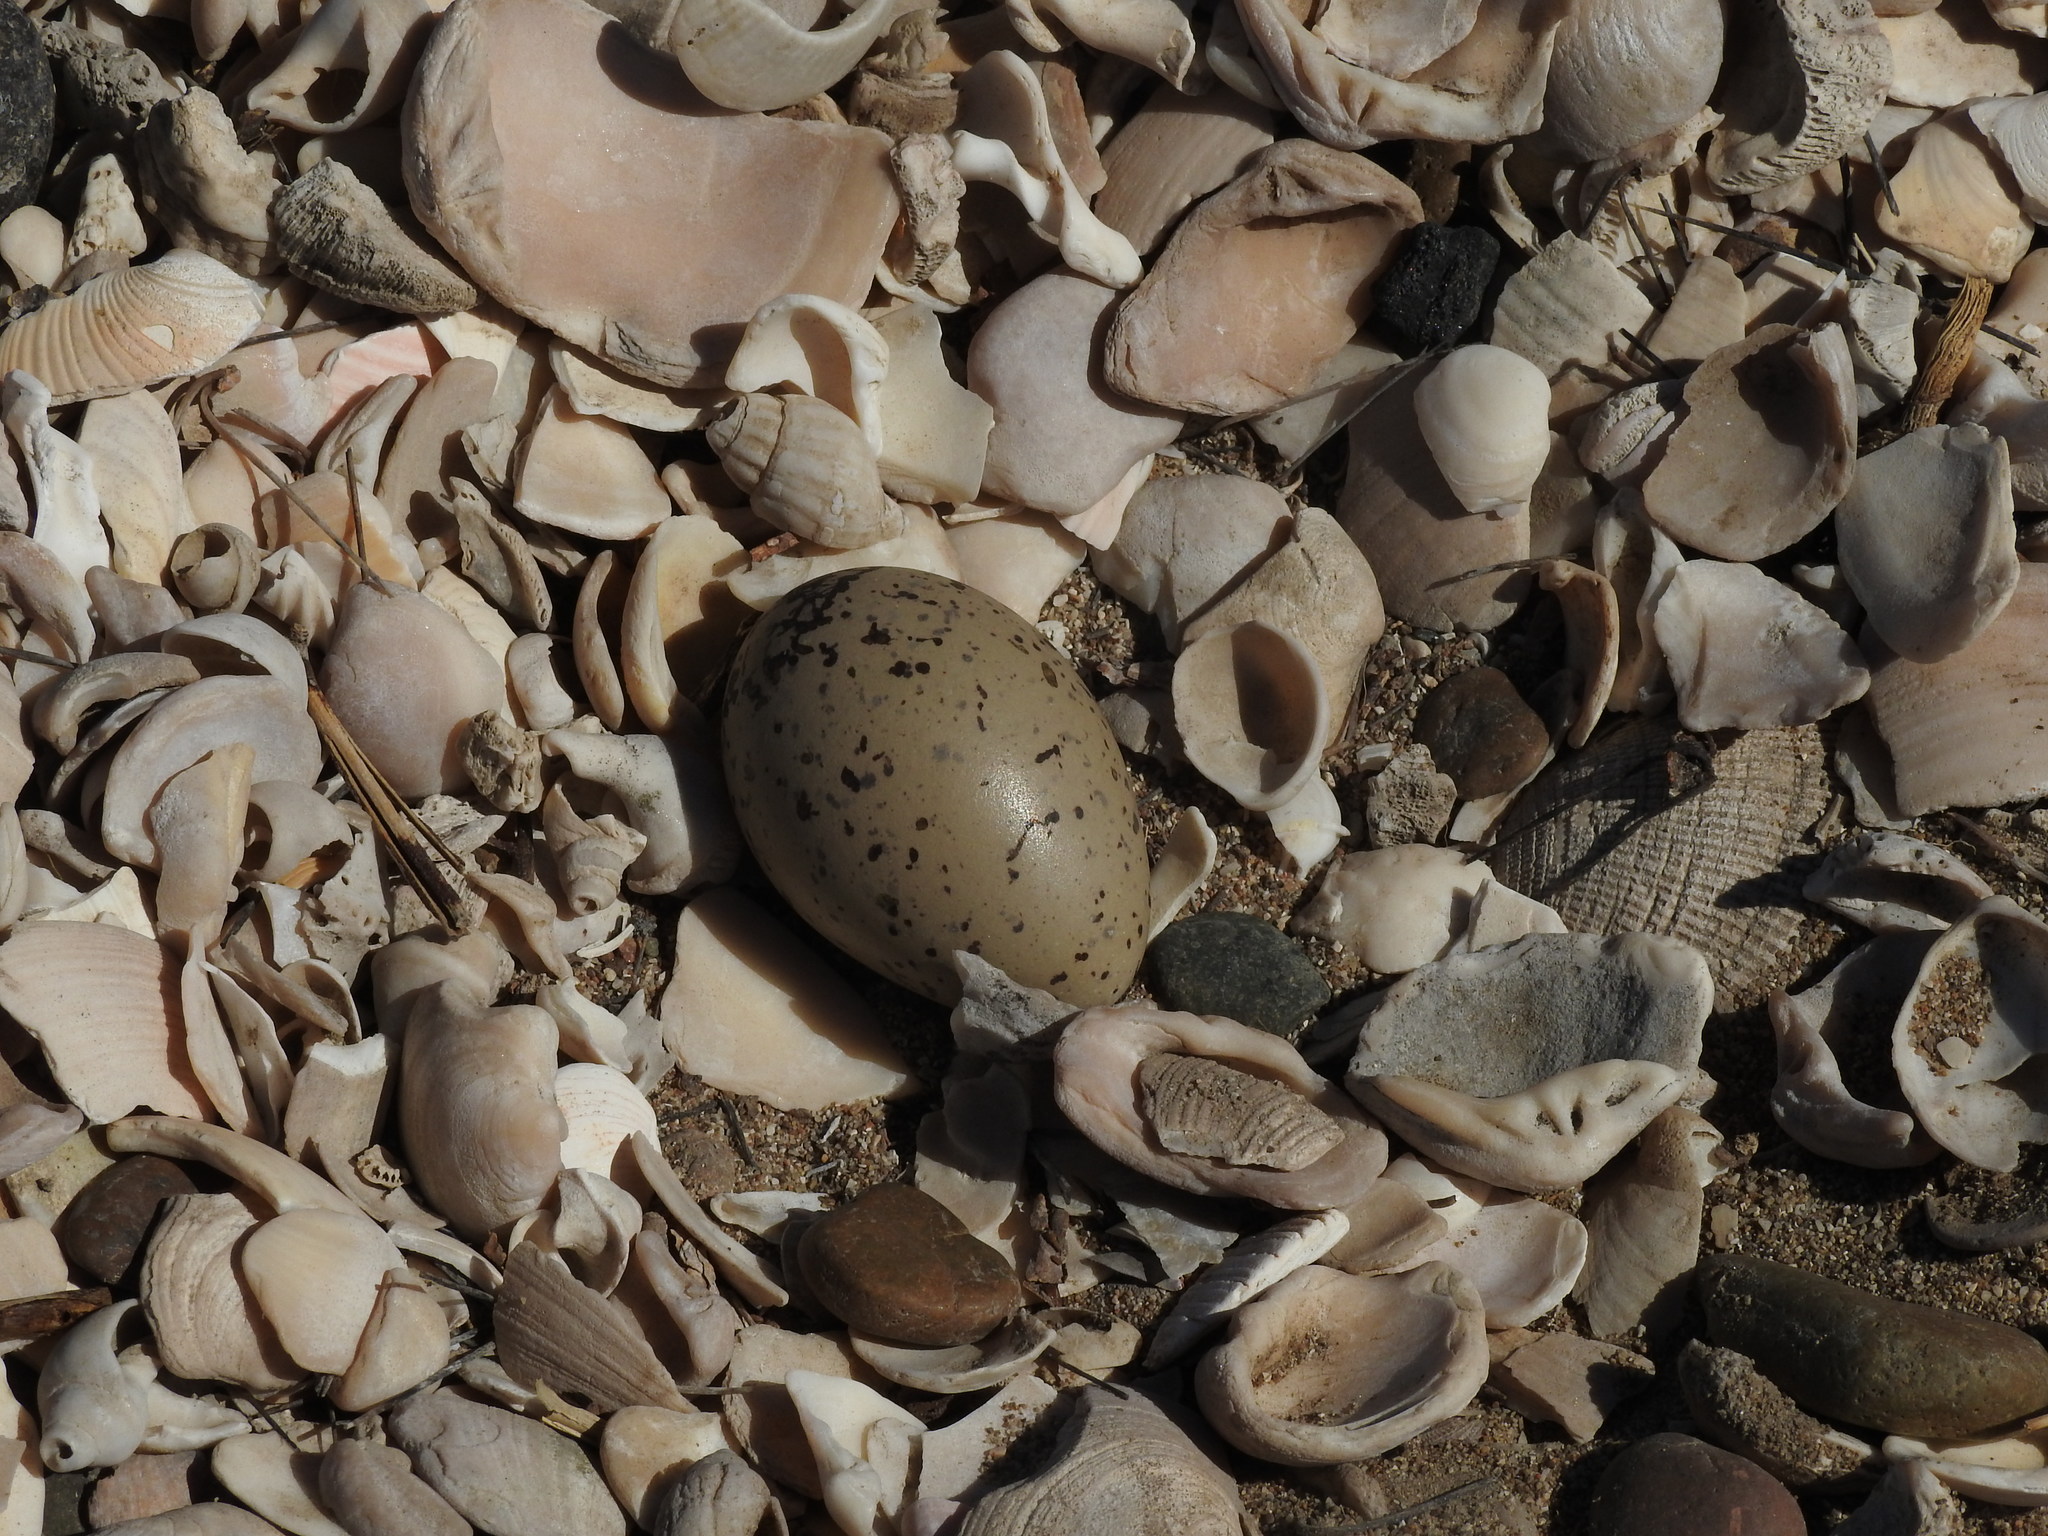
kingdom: Animalia
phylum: Chordata
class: Aves
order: Charadriiformes
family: Haematopodidae
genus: Haematopus
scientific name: Haematopus palliatus
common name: American oystercatcher
